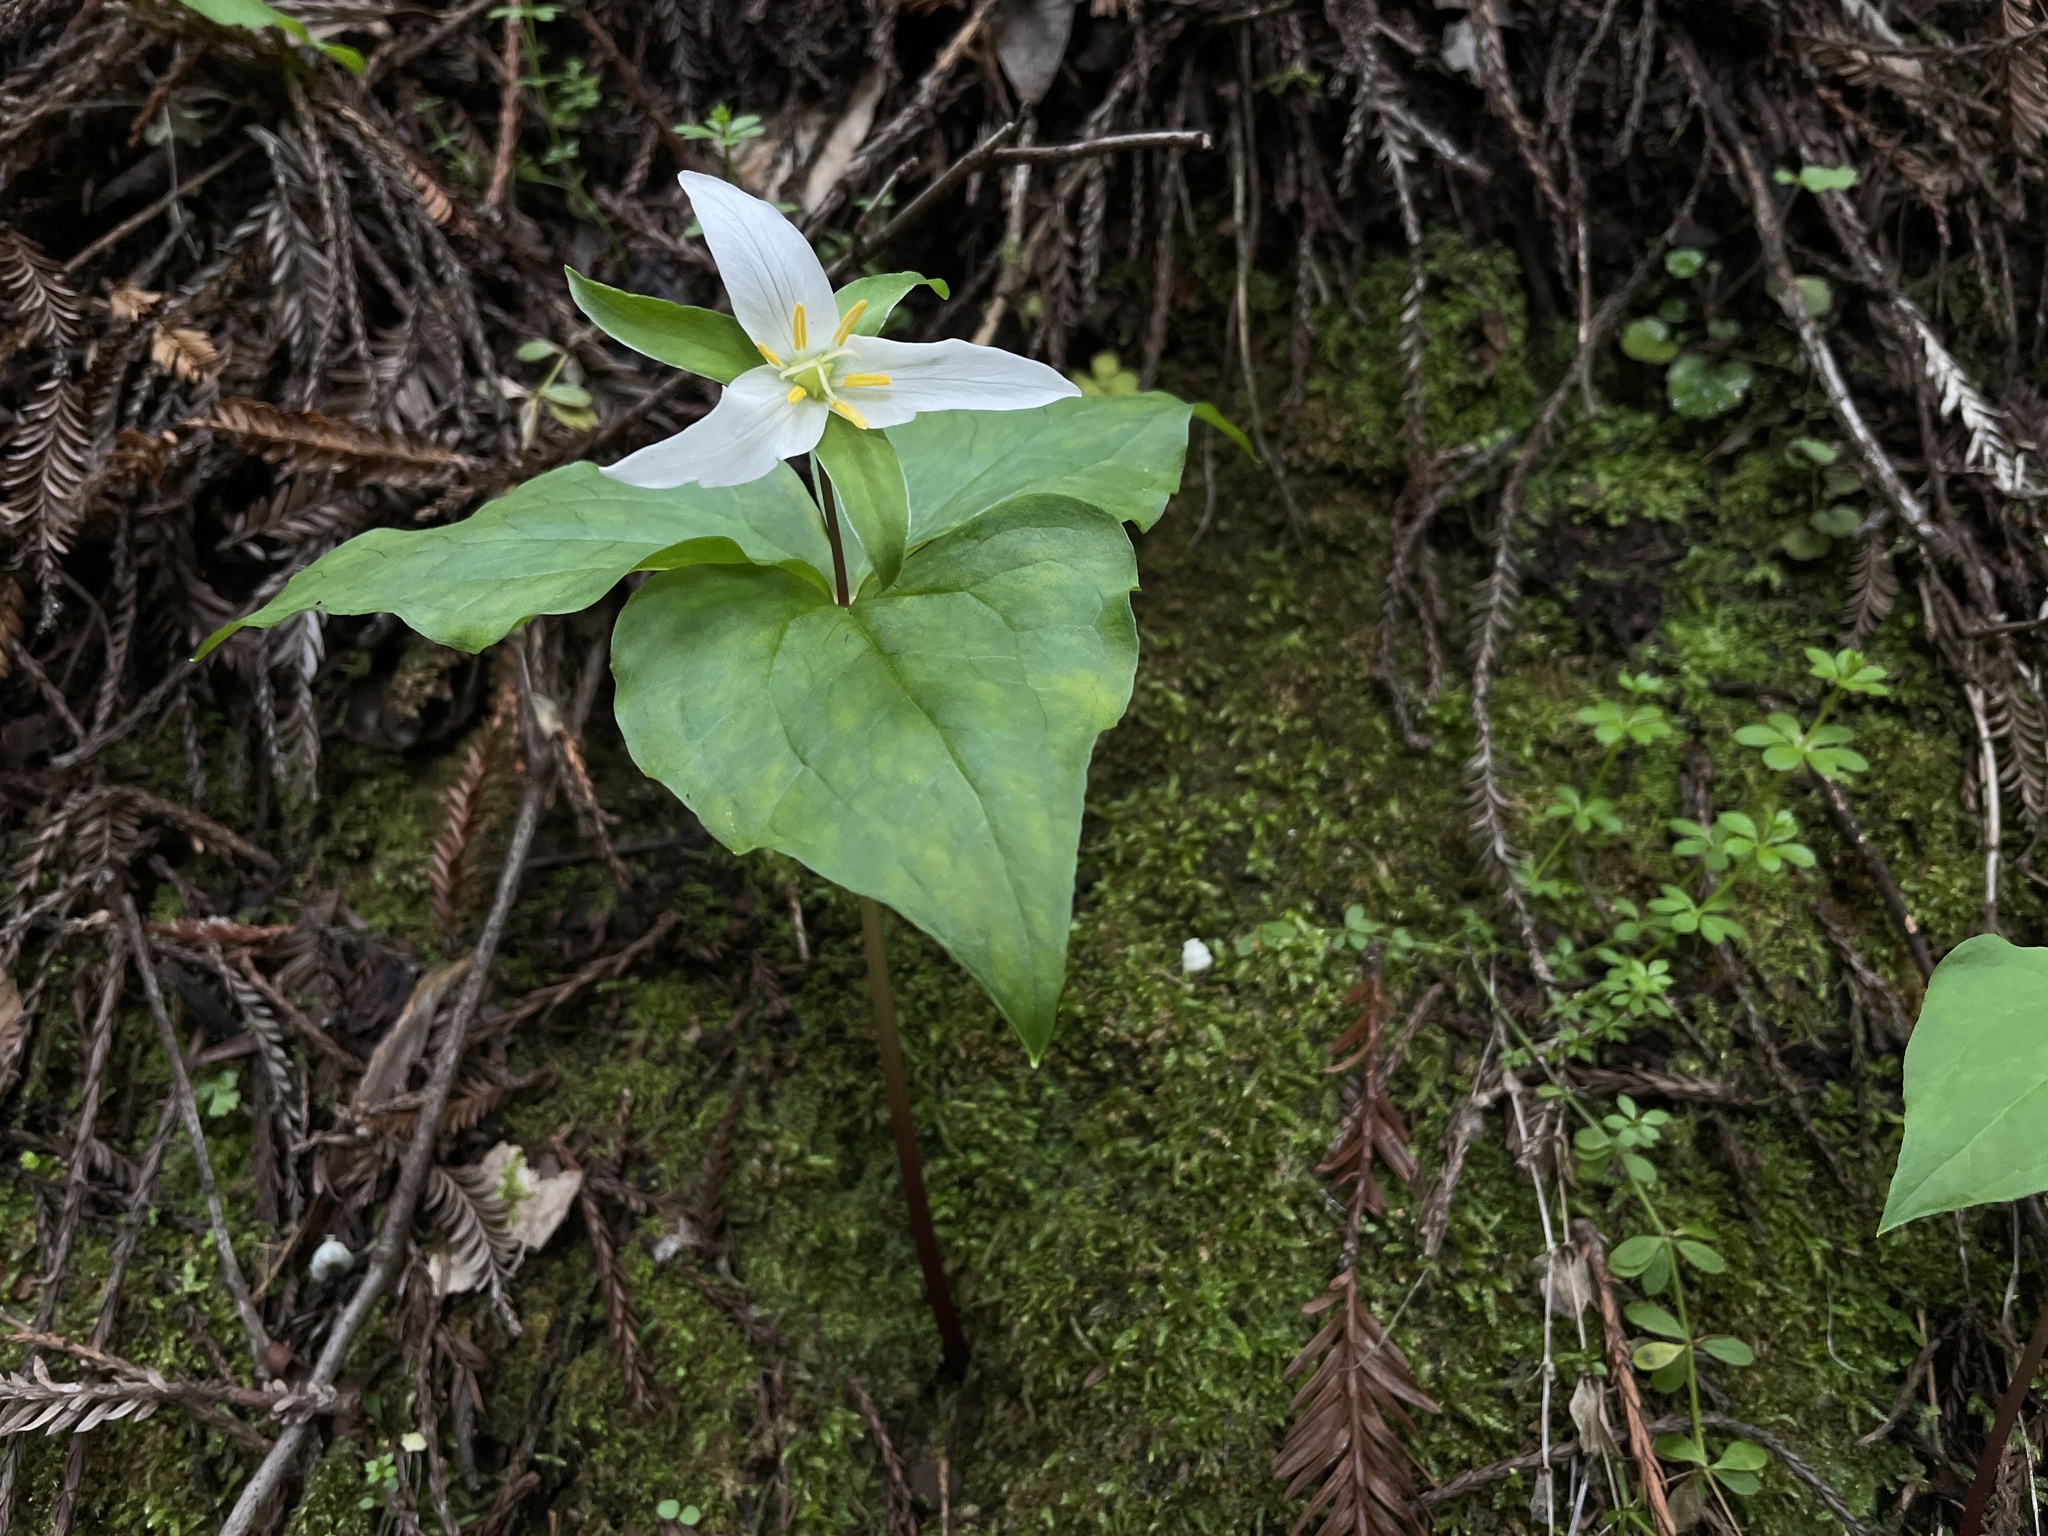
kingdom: Plantae
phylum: Tracheophyta
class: Liliopsida
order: Liliales
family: Melanthiaceae
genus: Trillium
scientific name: Trillium ovatum
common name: Pacific trillium
